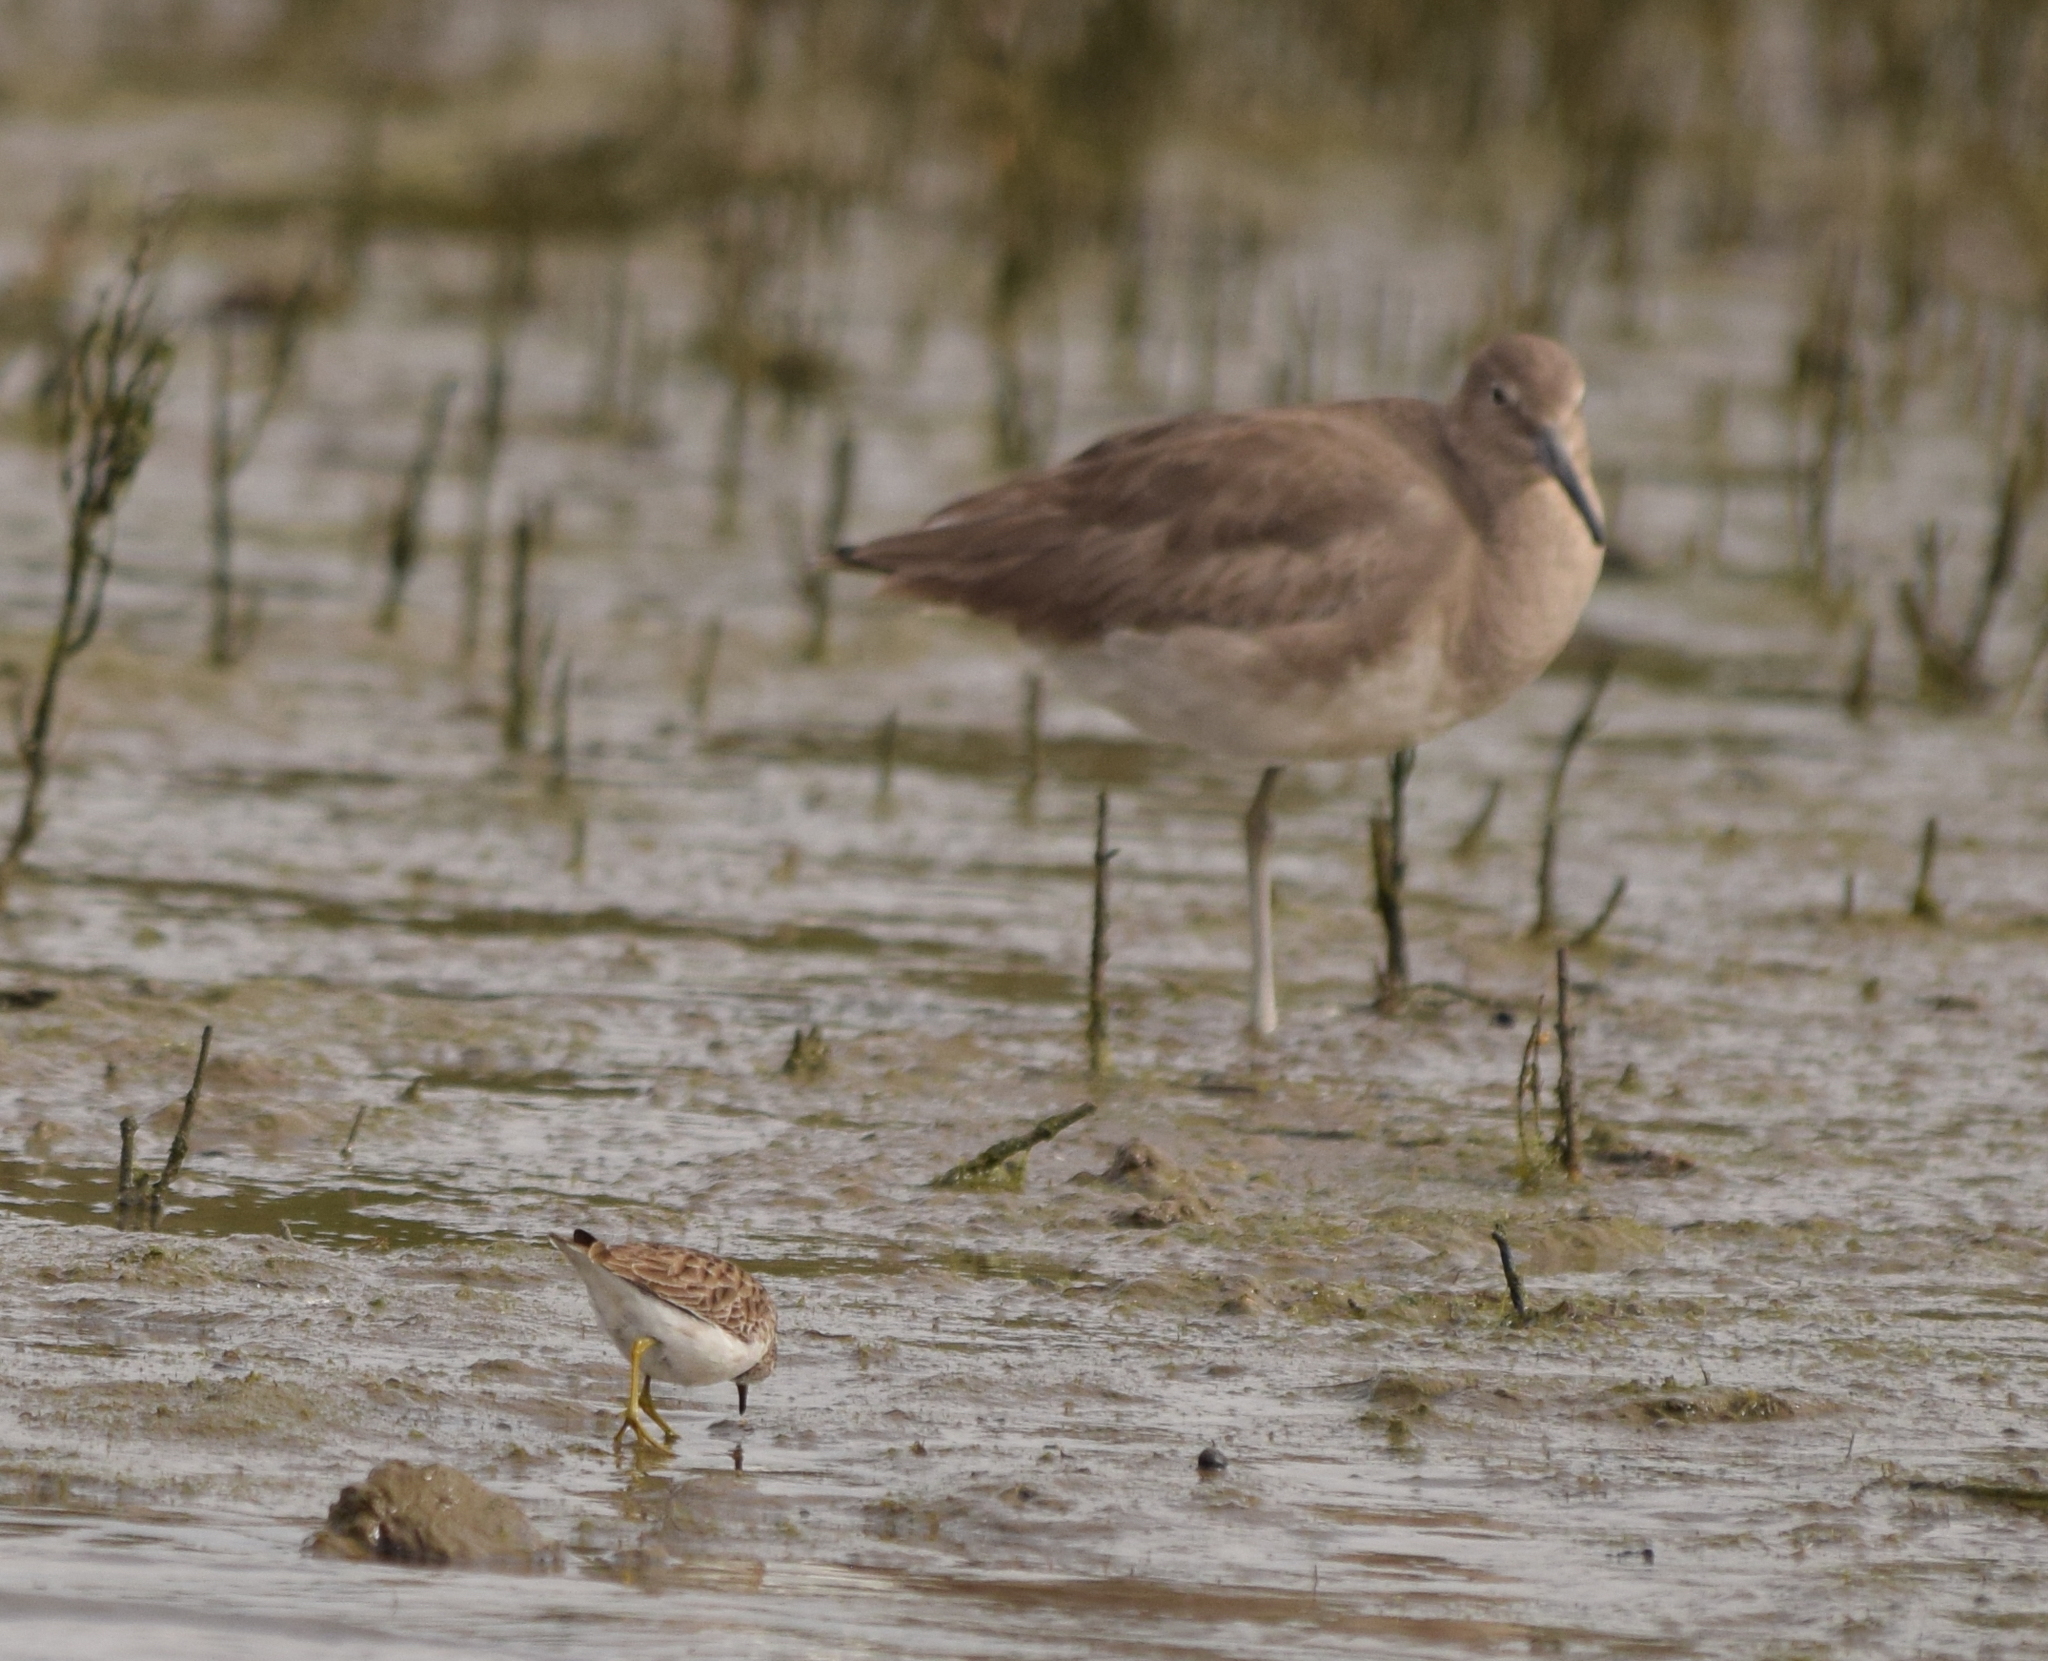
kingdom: Animalia
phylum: Chordata
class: Aves
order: Charadriiformes
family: Scolopacidae
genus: Tringa
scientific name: Tringa semipalmata
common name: Willet
